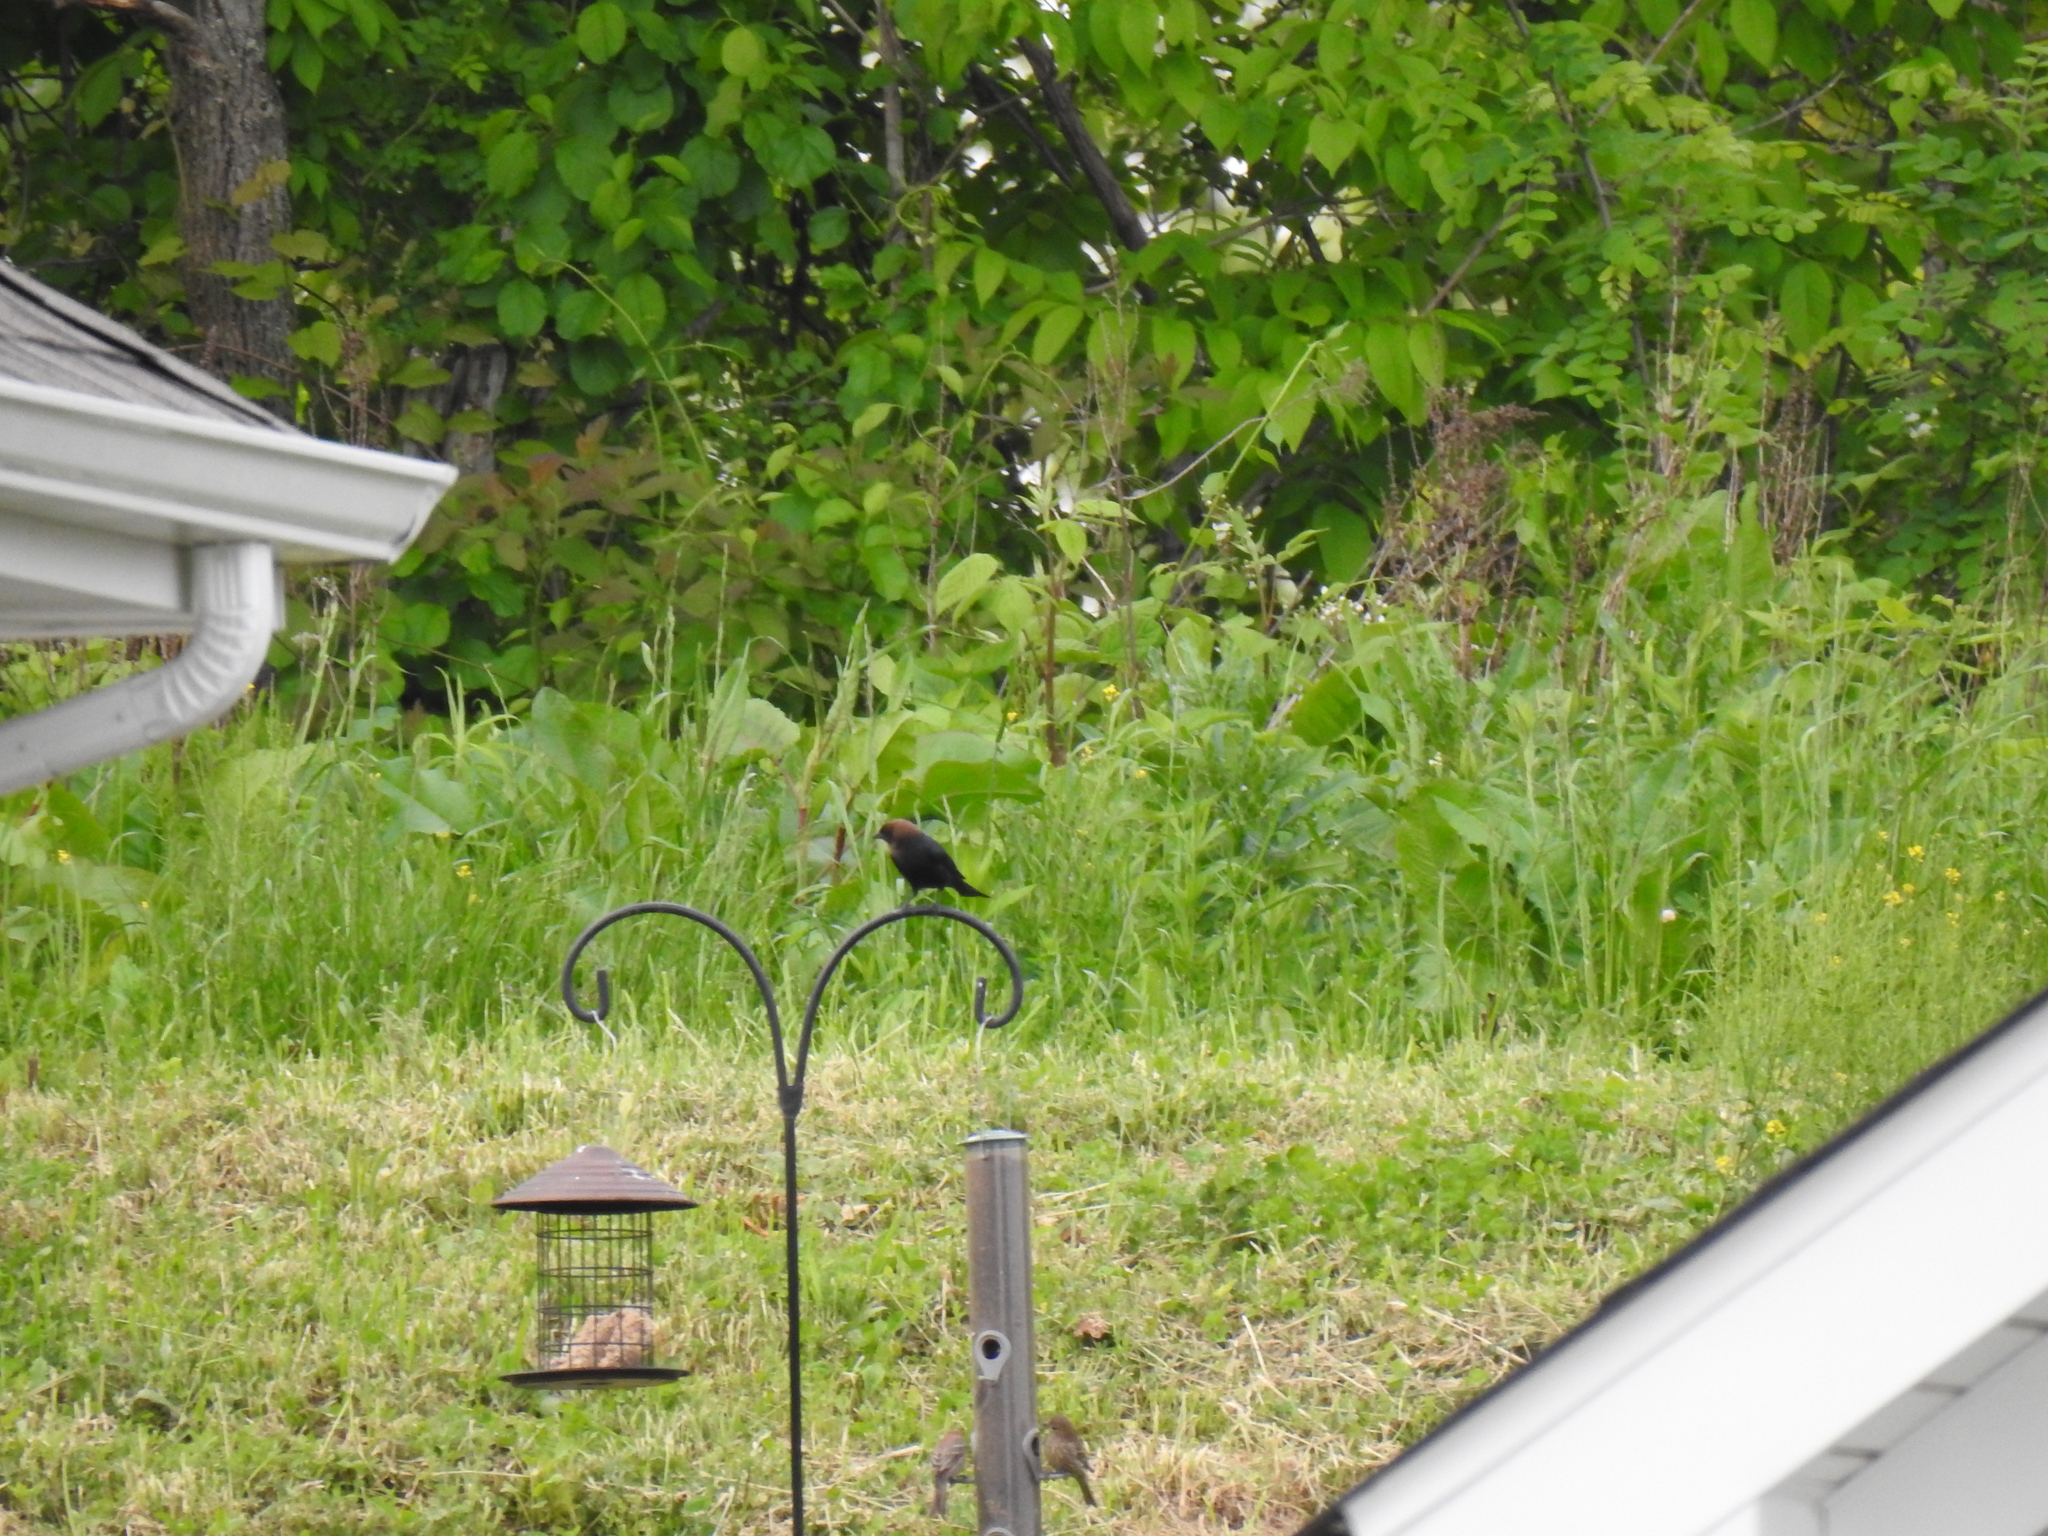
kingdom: Animalia
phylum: Chordata
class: Aves
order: Passeriformes
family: Icteridae
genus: Molothrus
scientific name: Molothrus ater
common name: Brown-headed cowbird
